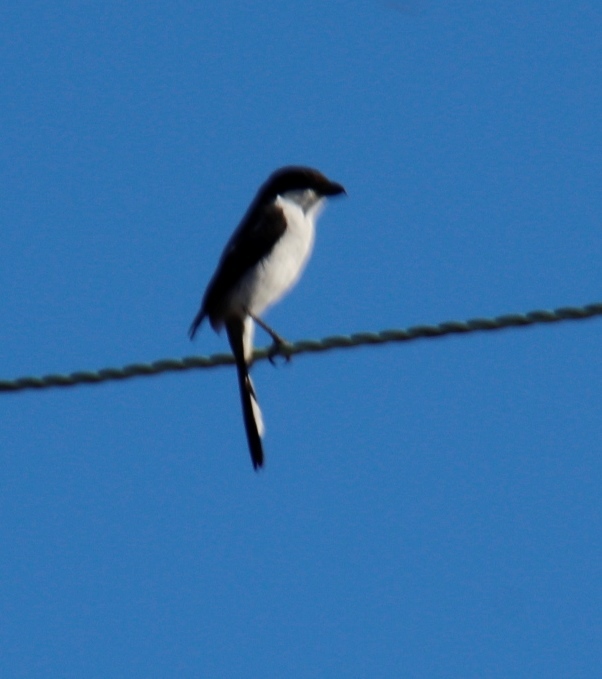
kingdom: Animalia
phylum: Chordata
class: Aves
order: Passeriformes
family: Laniidae
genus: Lanius
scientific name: Lanius collaris
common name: Southern fiscal
